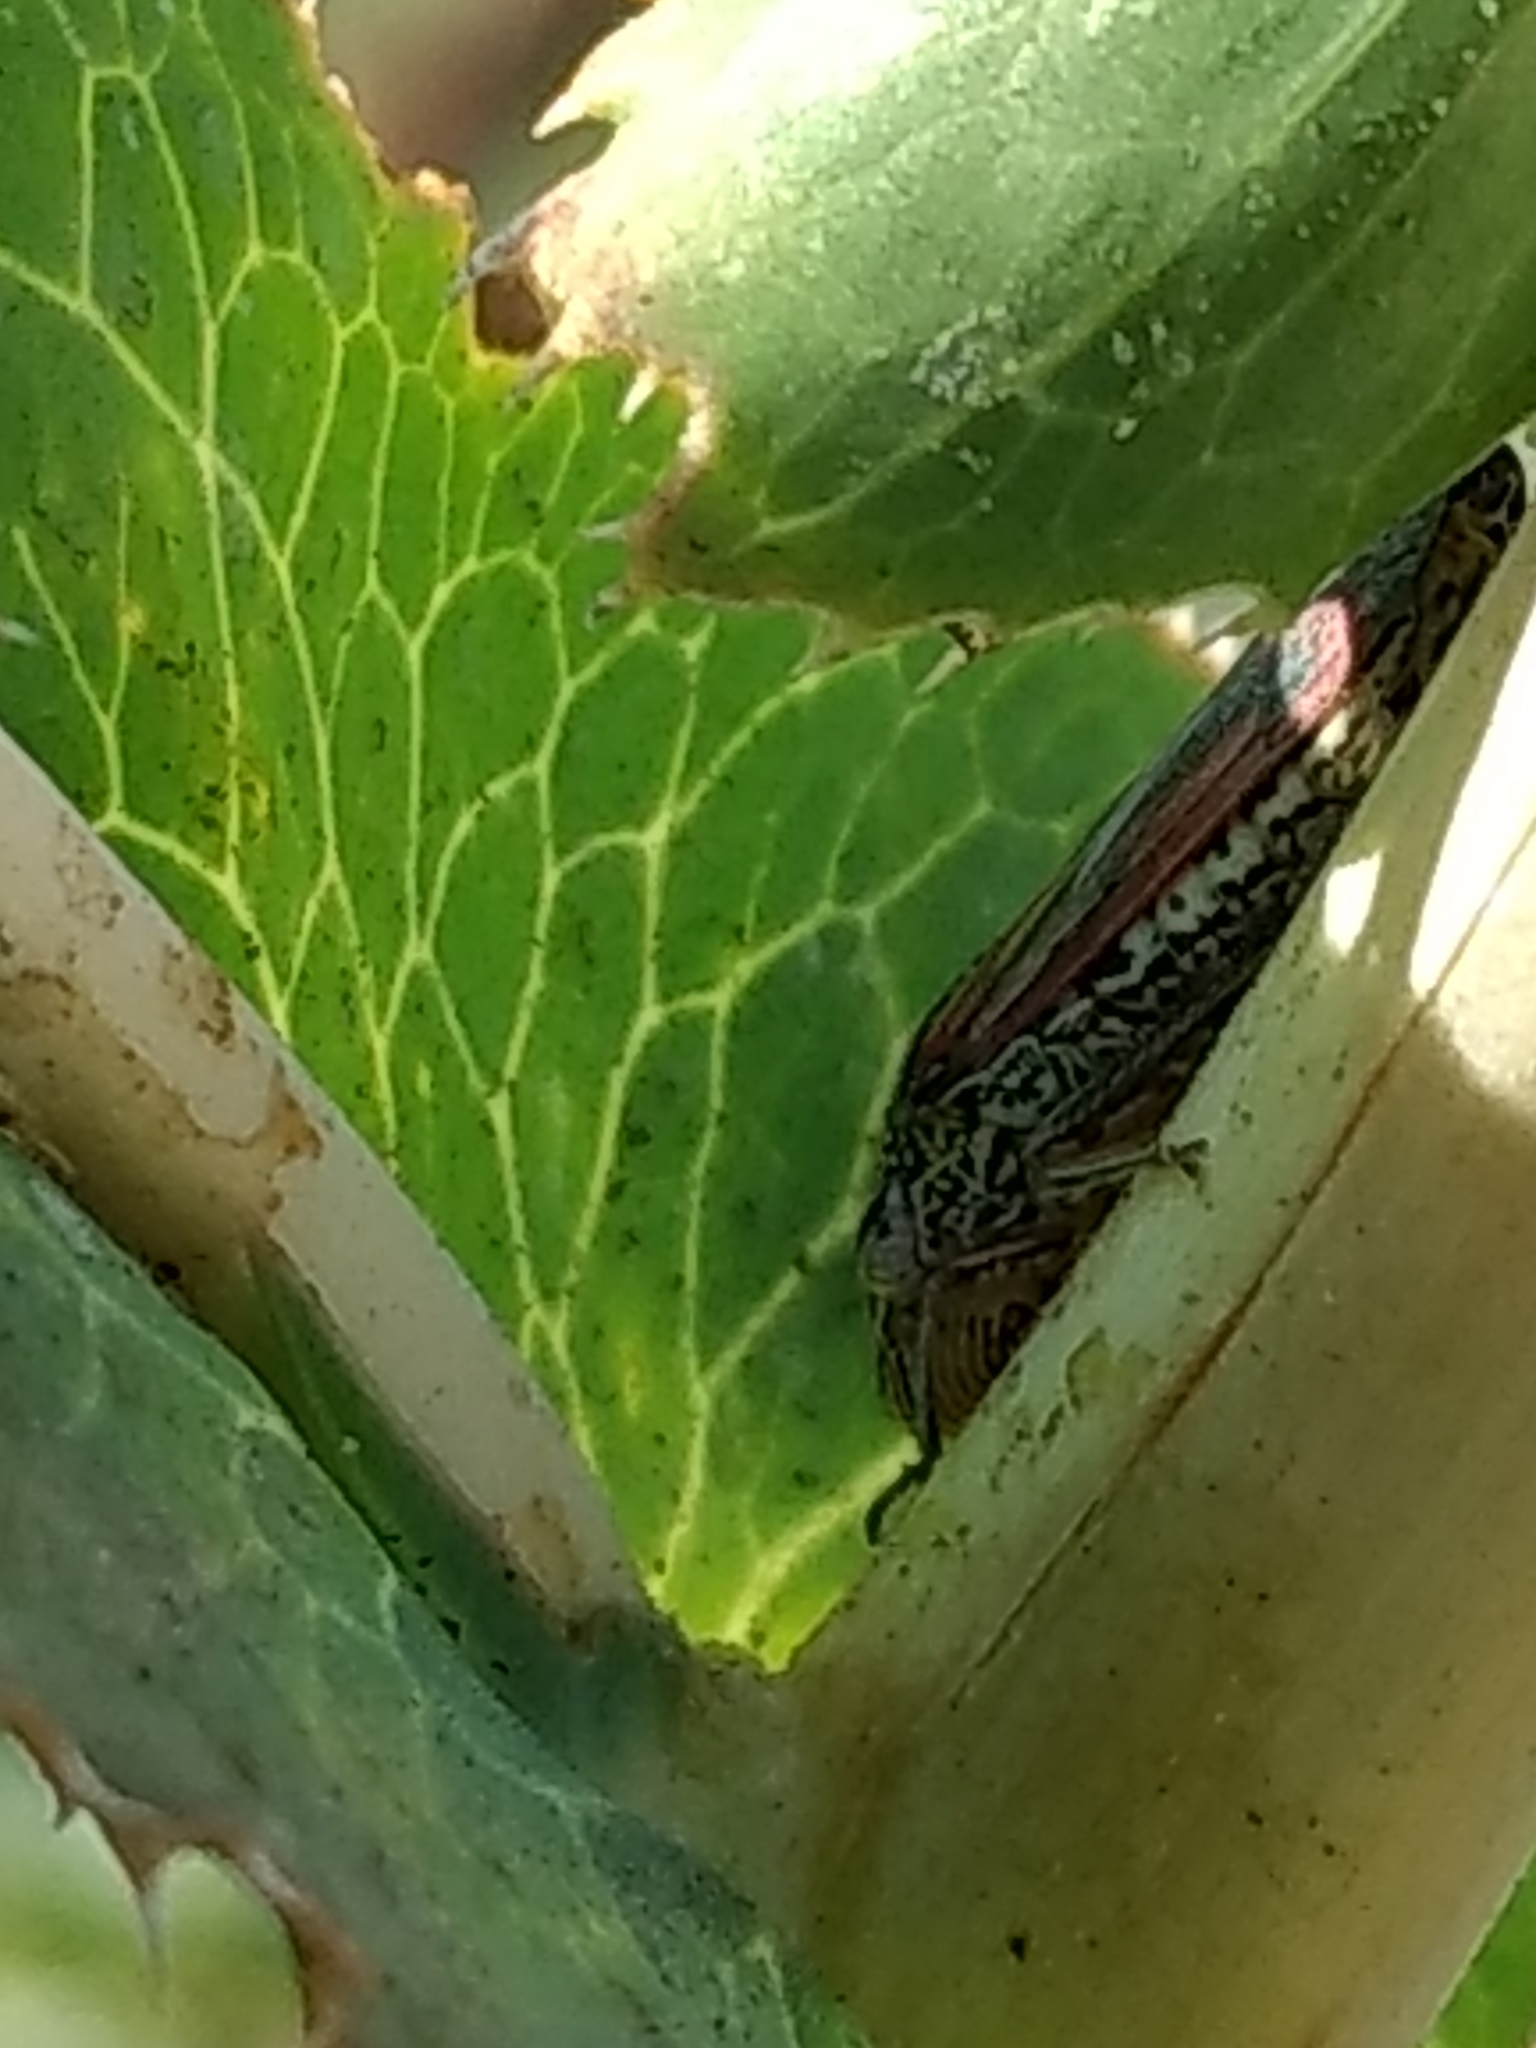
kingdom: Animalia
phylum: Arthropoda
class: Insecta
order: Hemiptera
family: Cicadellidae
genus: Homalodisca
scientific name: Homalodisca vitripennis
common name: Glassy-winged sharpshooter
